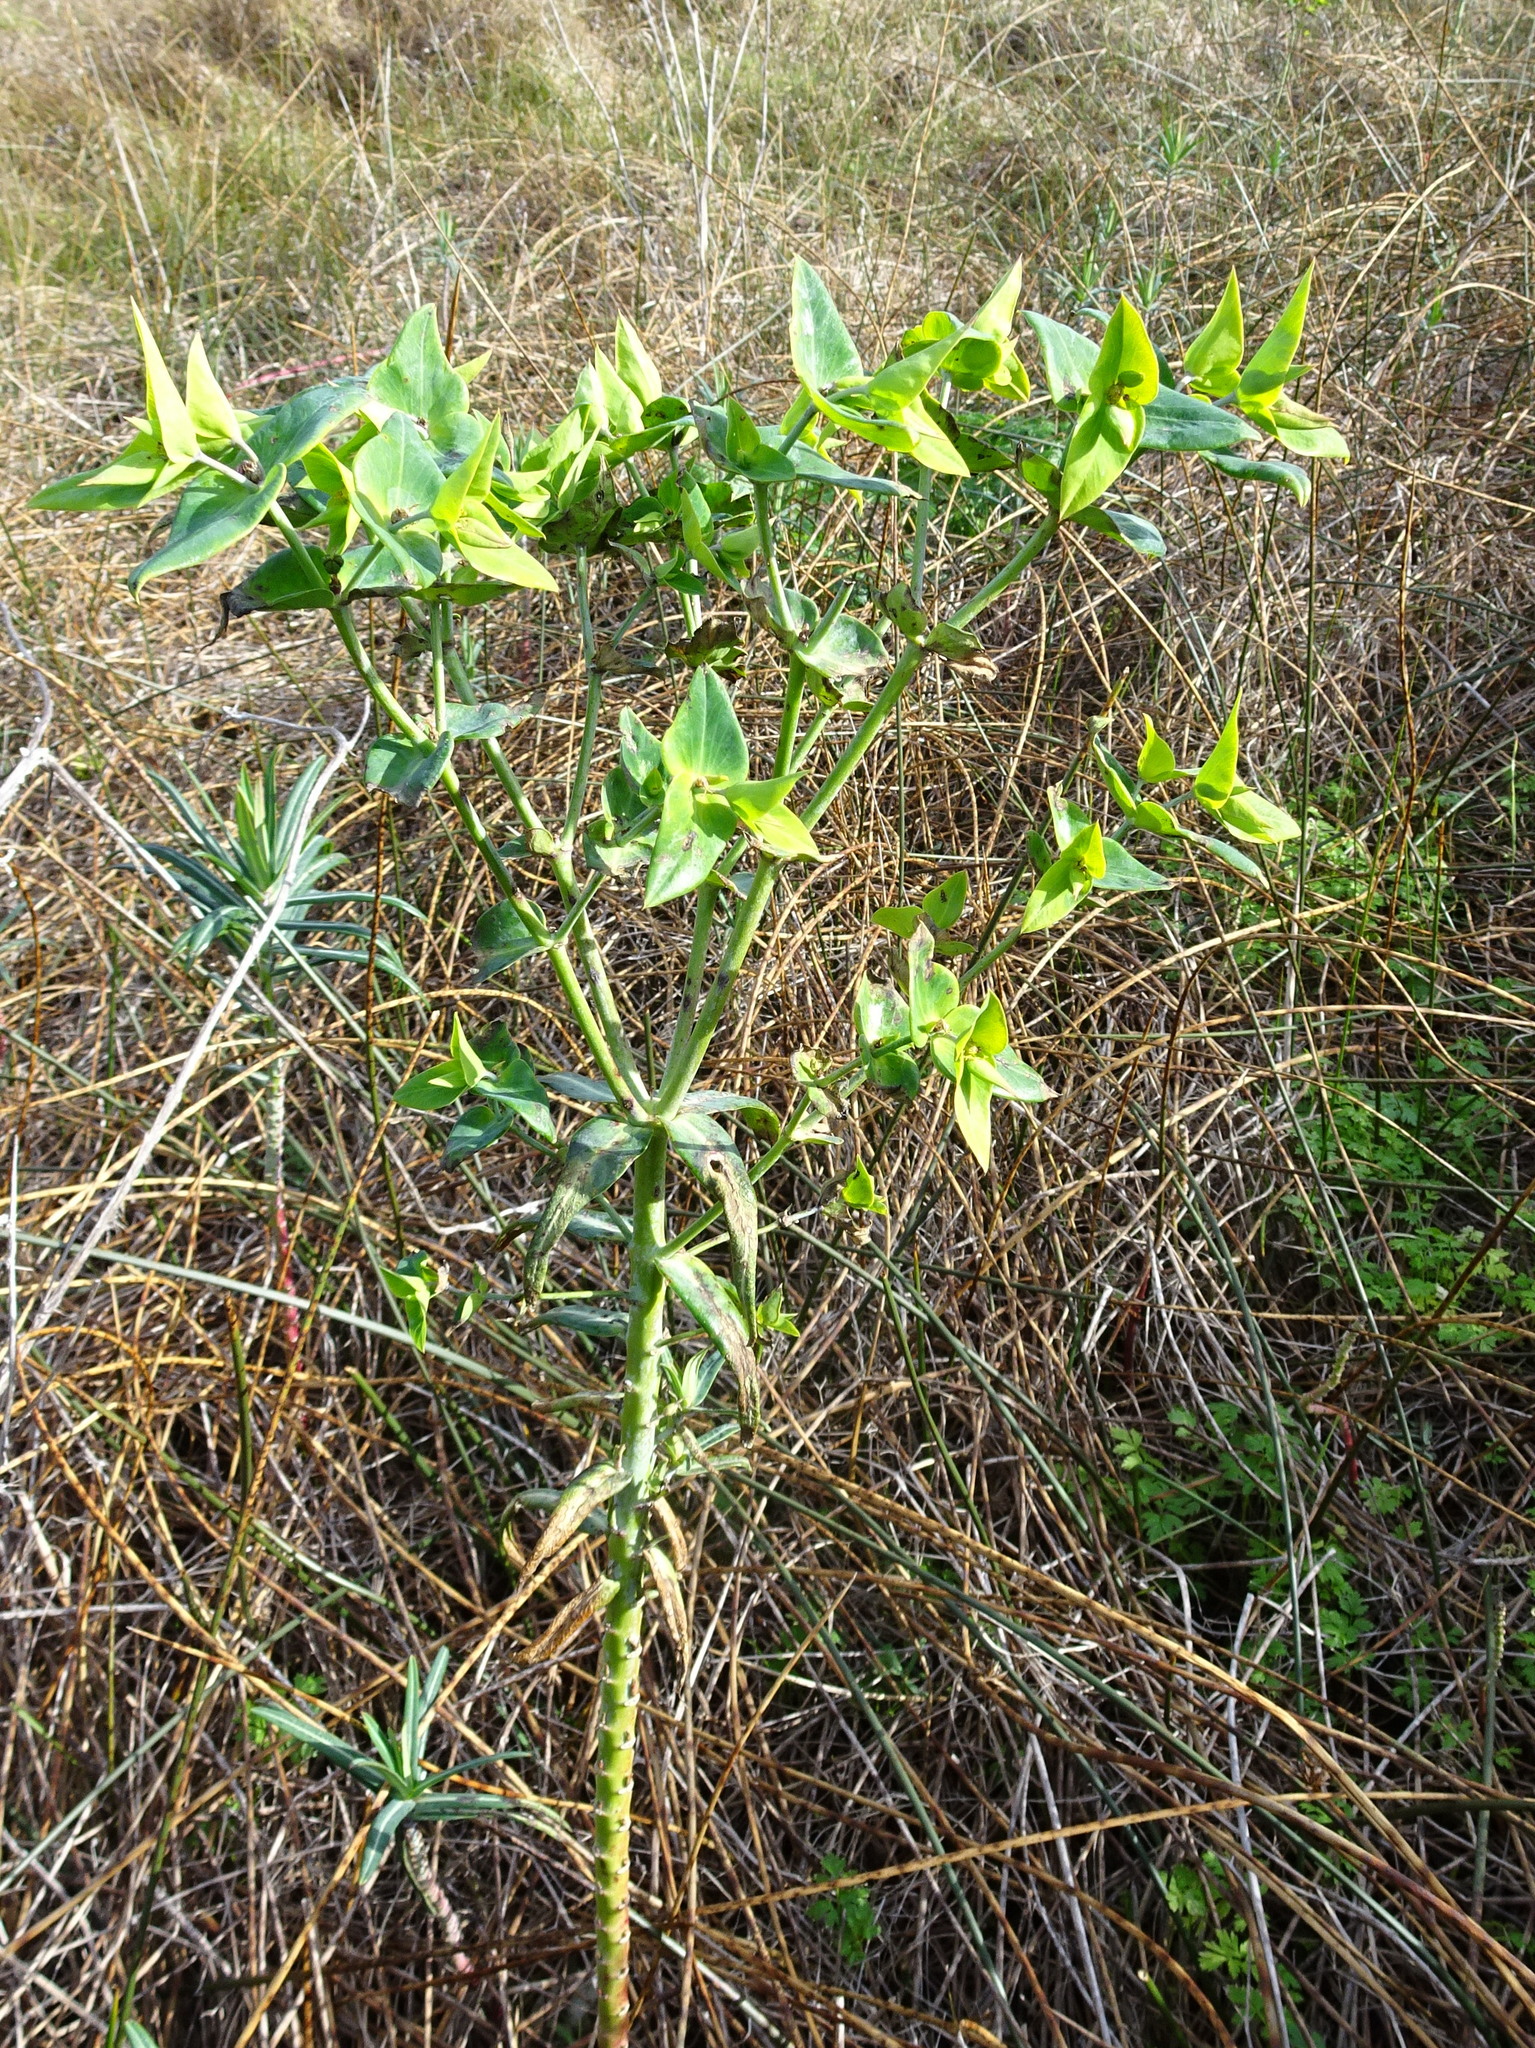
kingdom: Plantae
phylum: Tracheophyta
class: Magnoliopsida
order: Malpighiales
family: Euphorbiaceae
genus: Euphorbia
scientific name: Euphorbia lathyris
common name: Caper spurge
